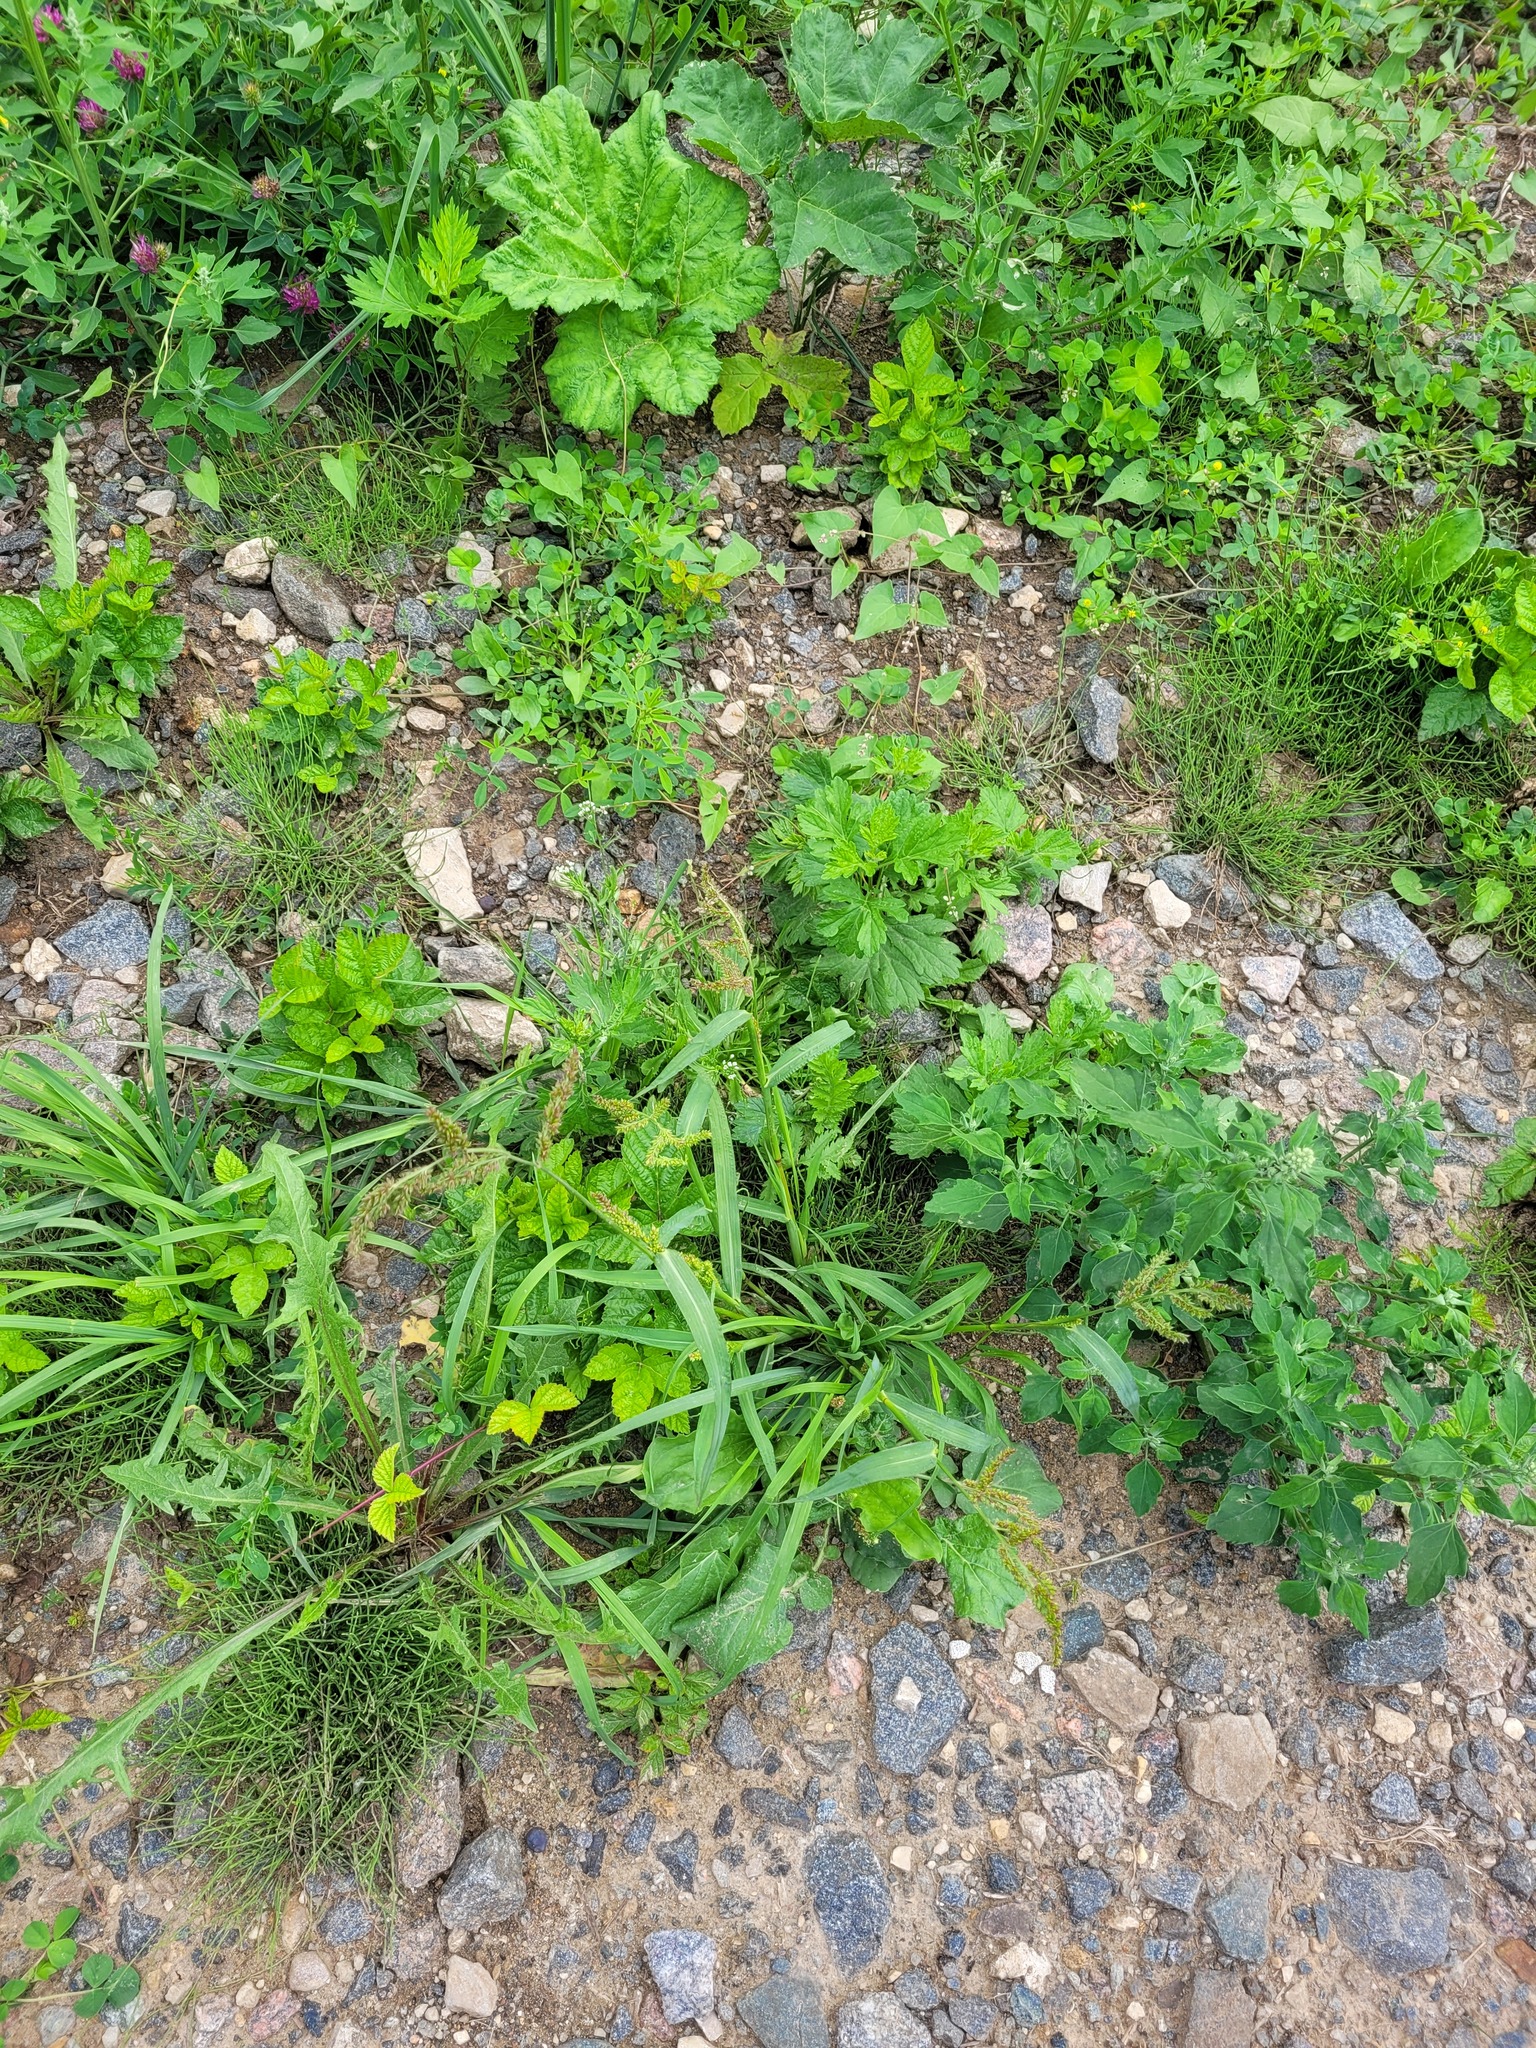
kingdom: Plantae
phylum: Tracheophyta
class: Liliopsida
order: Poales
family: Poaceae
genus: Echinochloa
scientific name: Echinochloa crus-galli
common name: Cockspur
